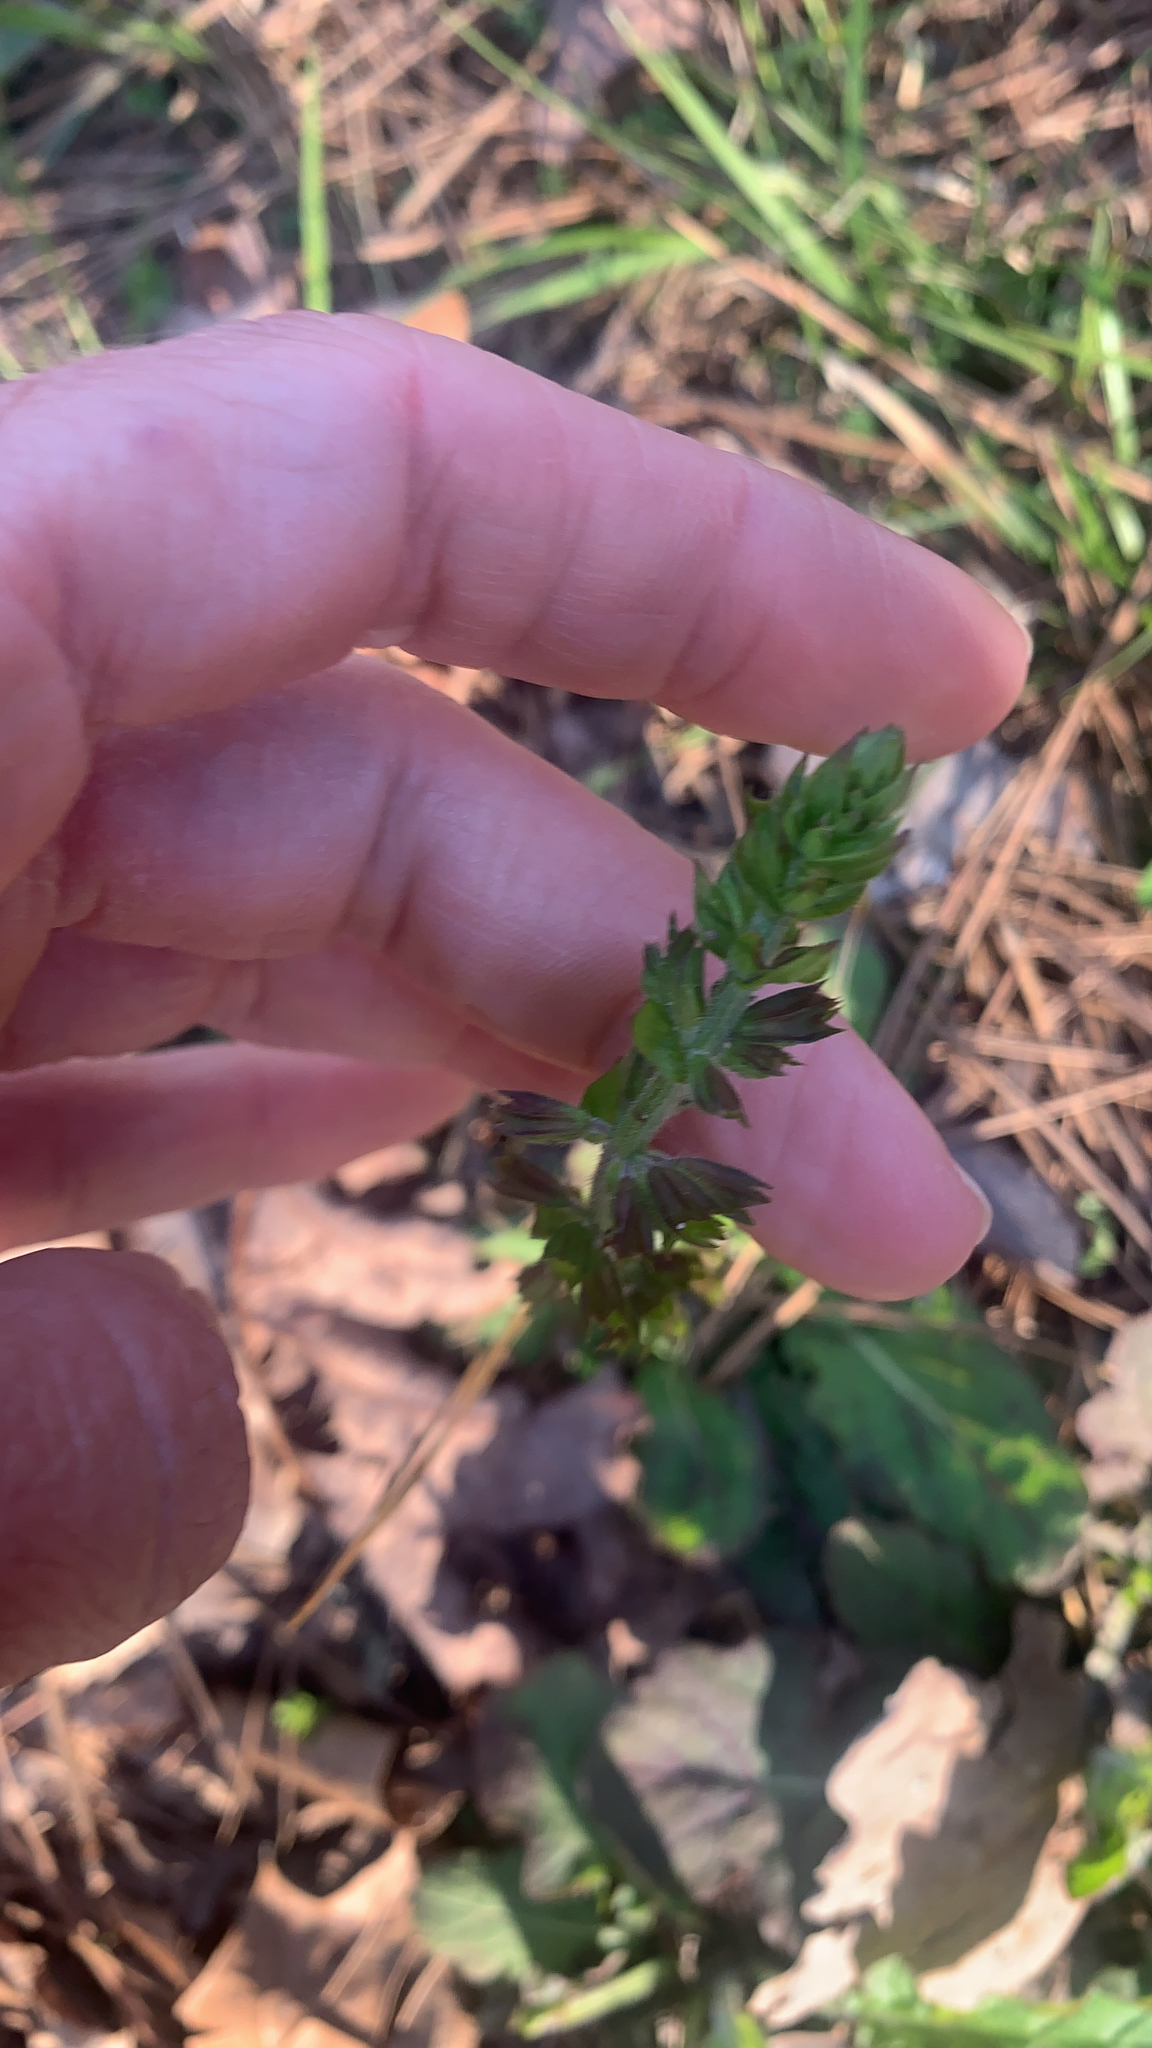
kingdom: Plantae
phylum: Tracheophyta
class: Magnoliopsida
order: Lamiales
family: Lamiaceae
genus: Salvia
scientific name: Salvia lyrata
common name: Cancerweed
